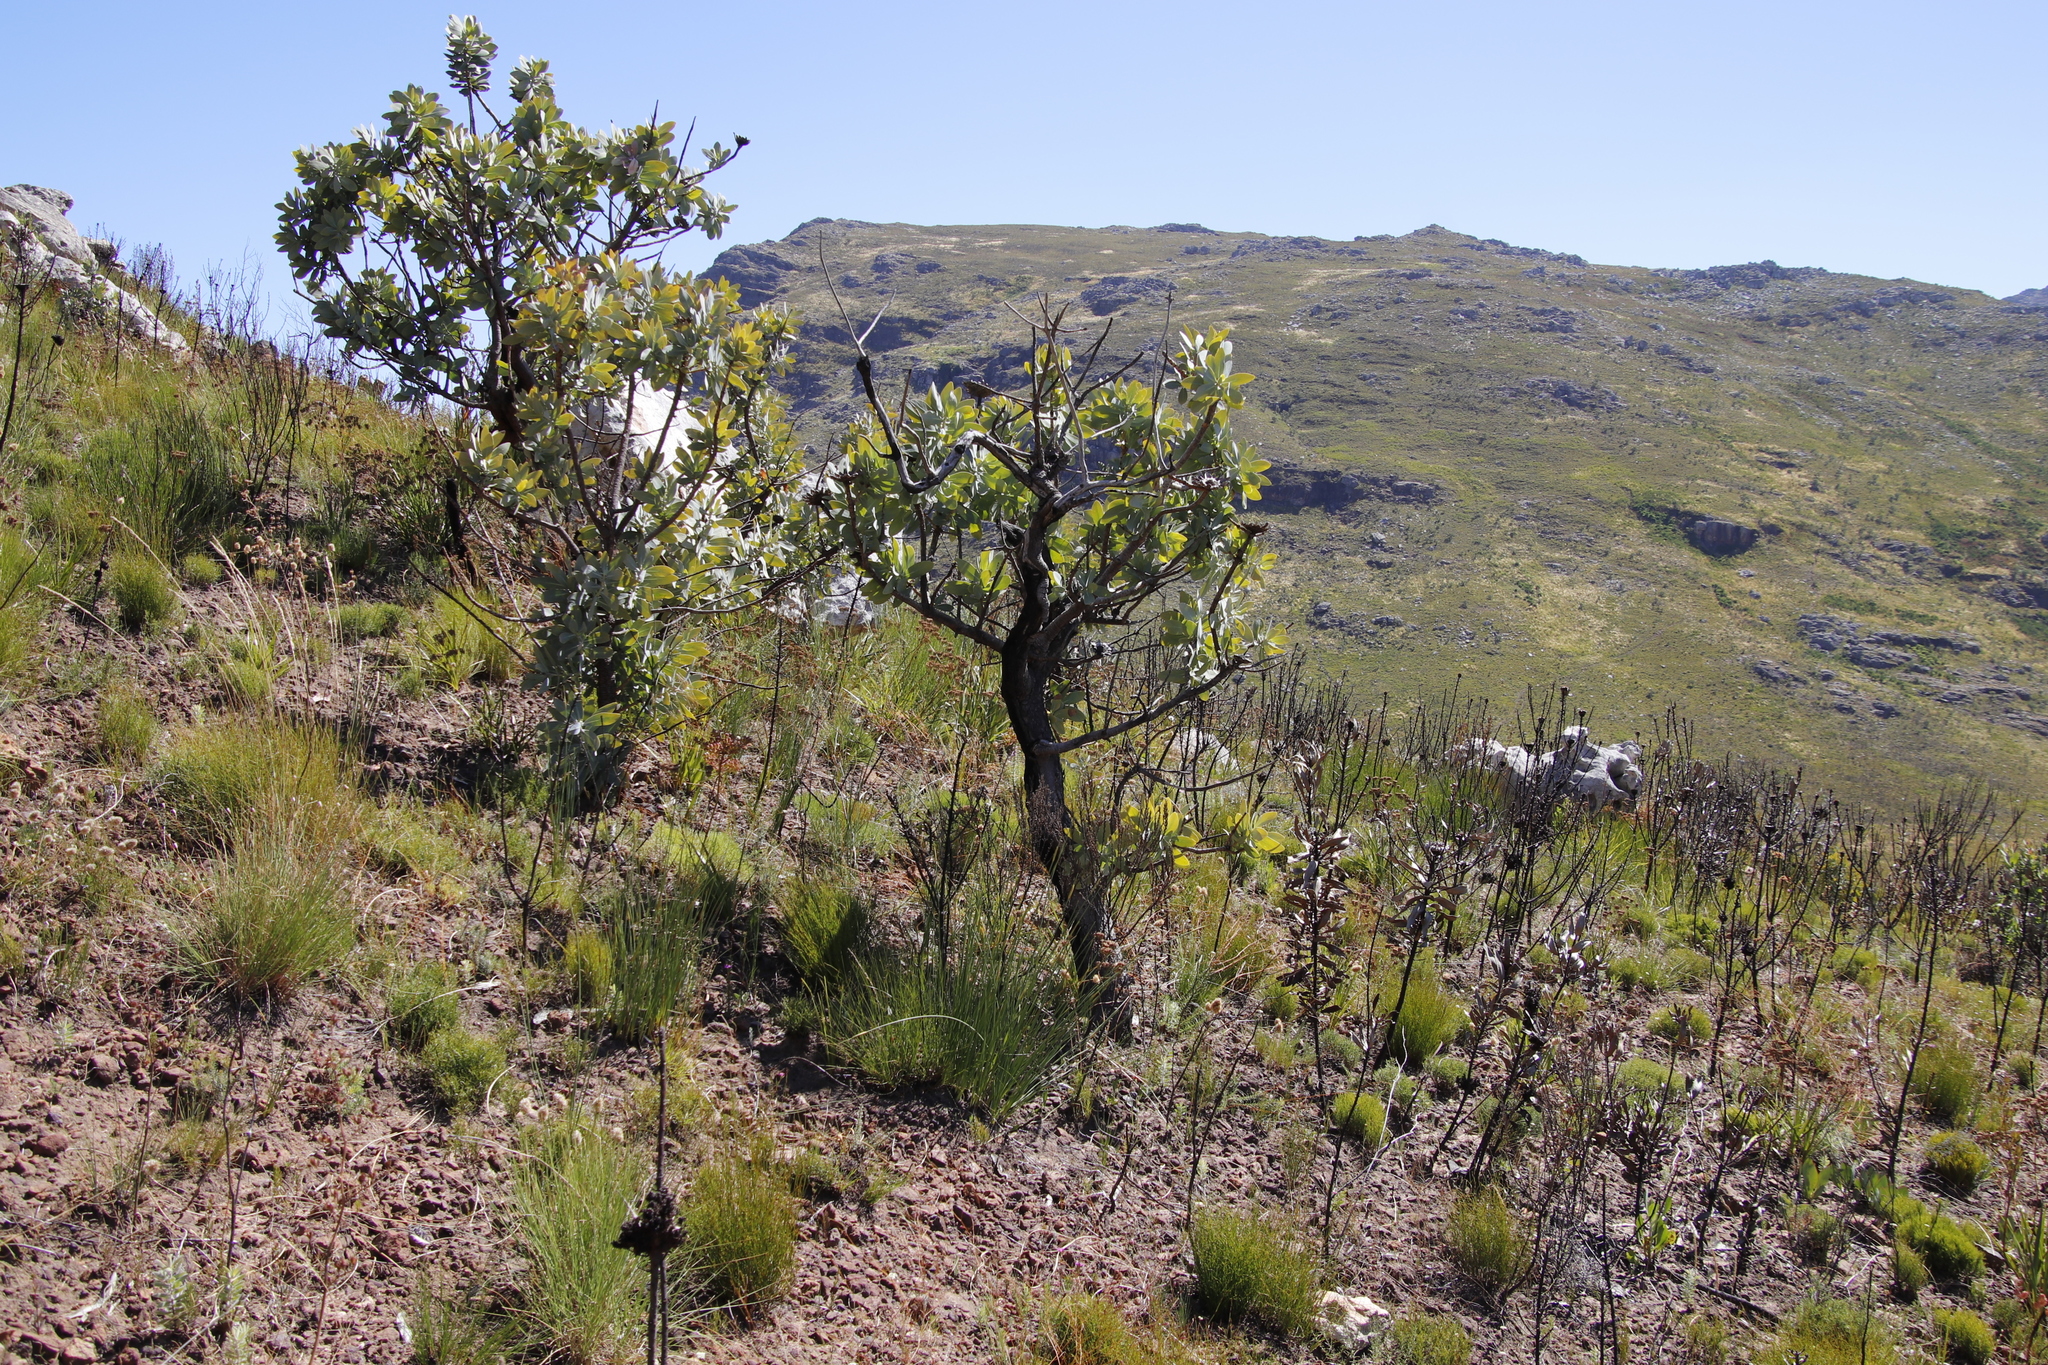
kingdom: Plantae
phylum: Tracheophyta
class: Magnoliopsida
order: Proteales
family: Proteaceae
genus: Protea
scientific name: Protea nitida
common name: Tree protea
